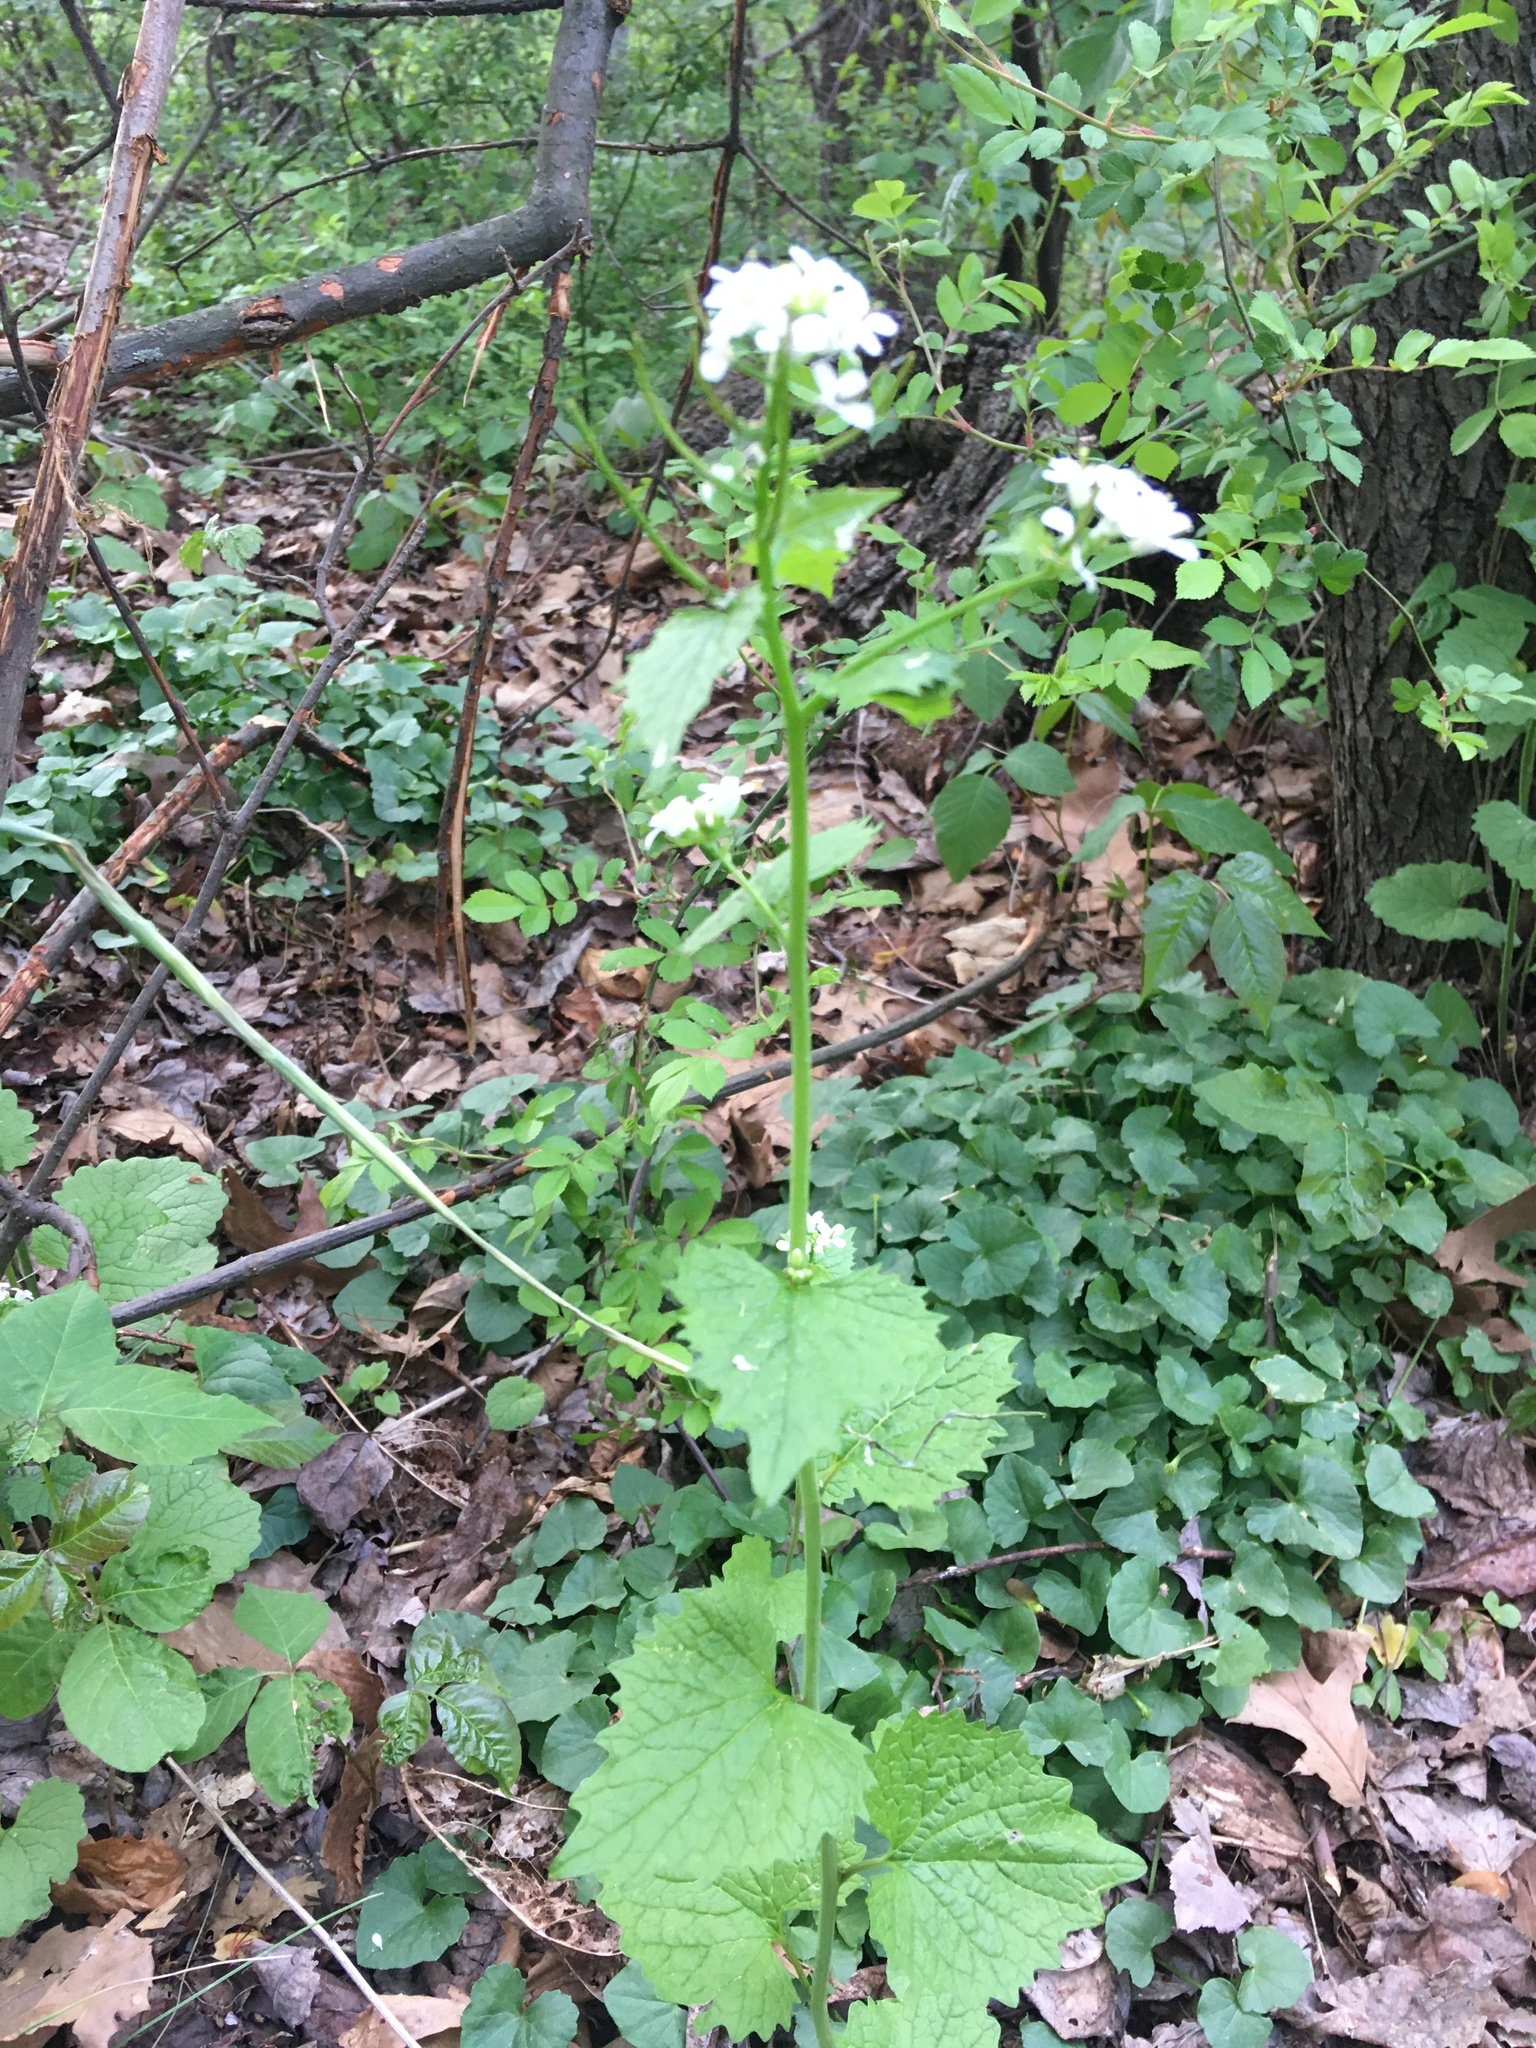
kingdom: Plantae
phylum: Tracheophyta
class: Magnoliopsida
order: Brassicales
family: Brassicaceae
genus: Alliaria
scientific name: Alliaria petiolata
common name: Garlic mustard
